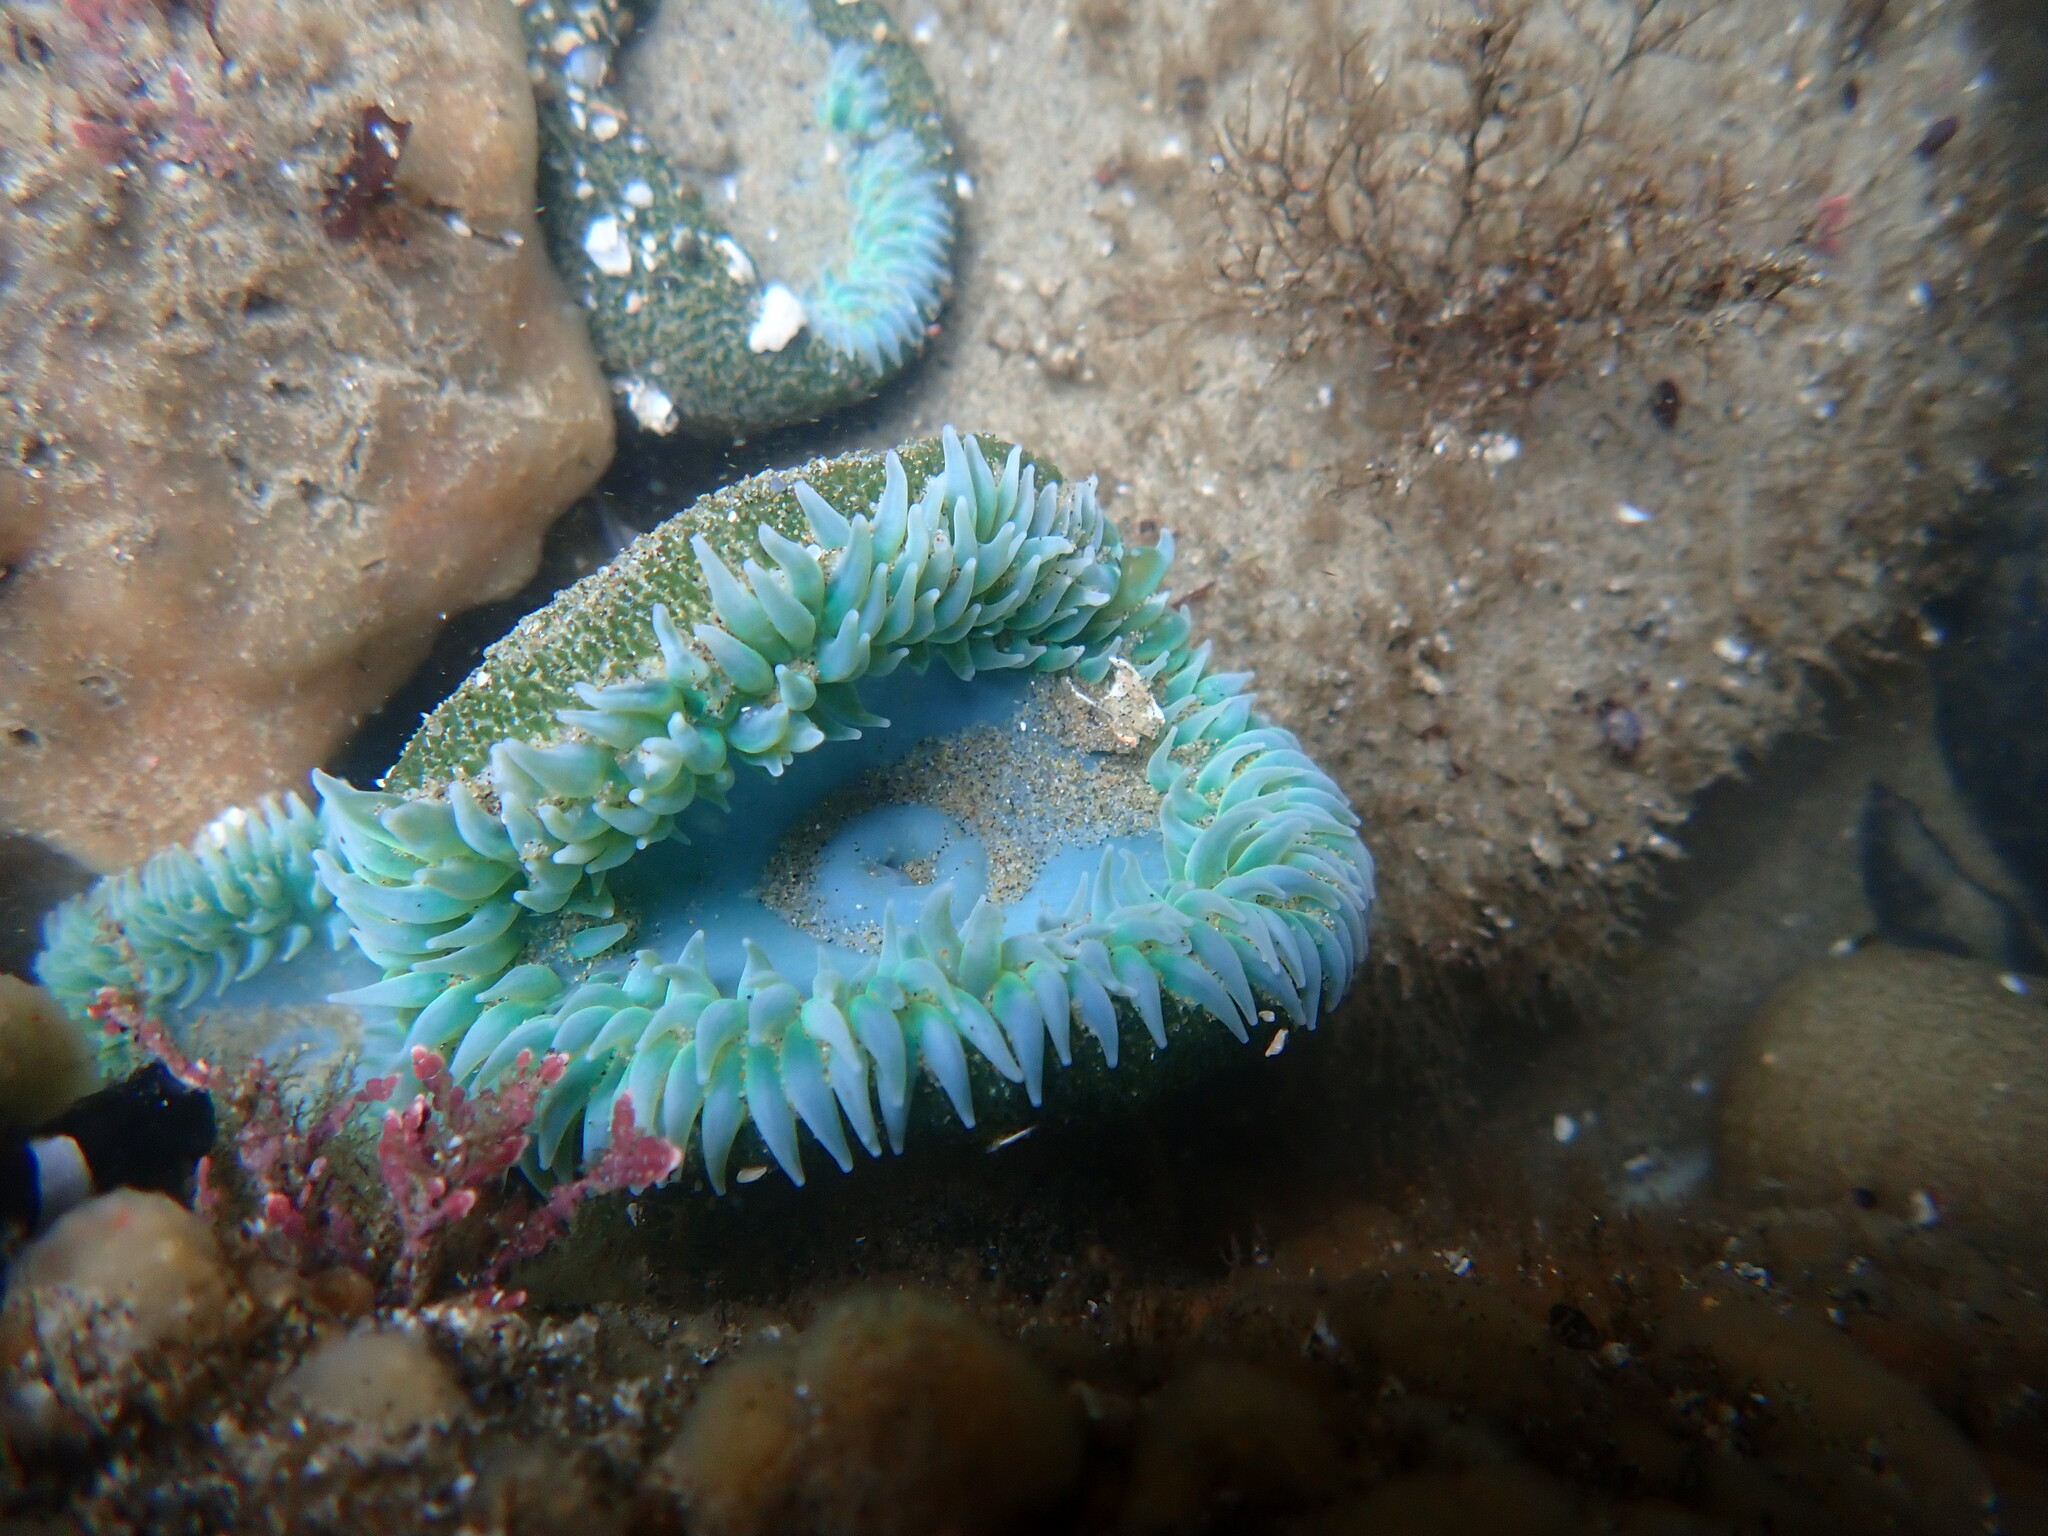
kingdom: Animalia
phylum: Cnidaria
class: Anthozoa
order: Actiniaria
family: Actiniidae
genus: Anthopleura
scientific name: Anthopleura xanthogrammica
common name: Giant green anemone
